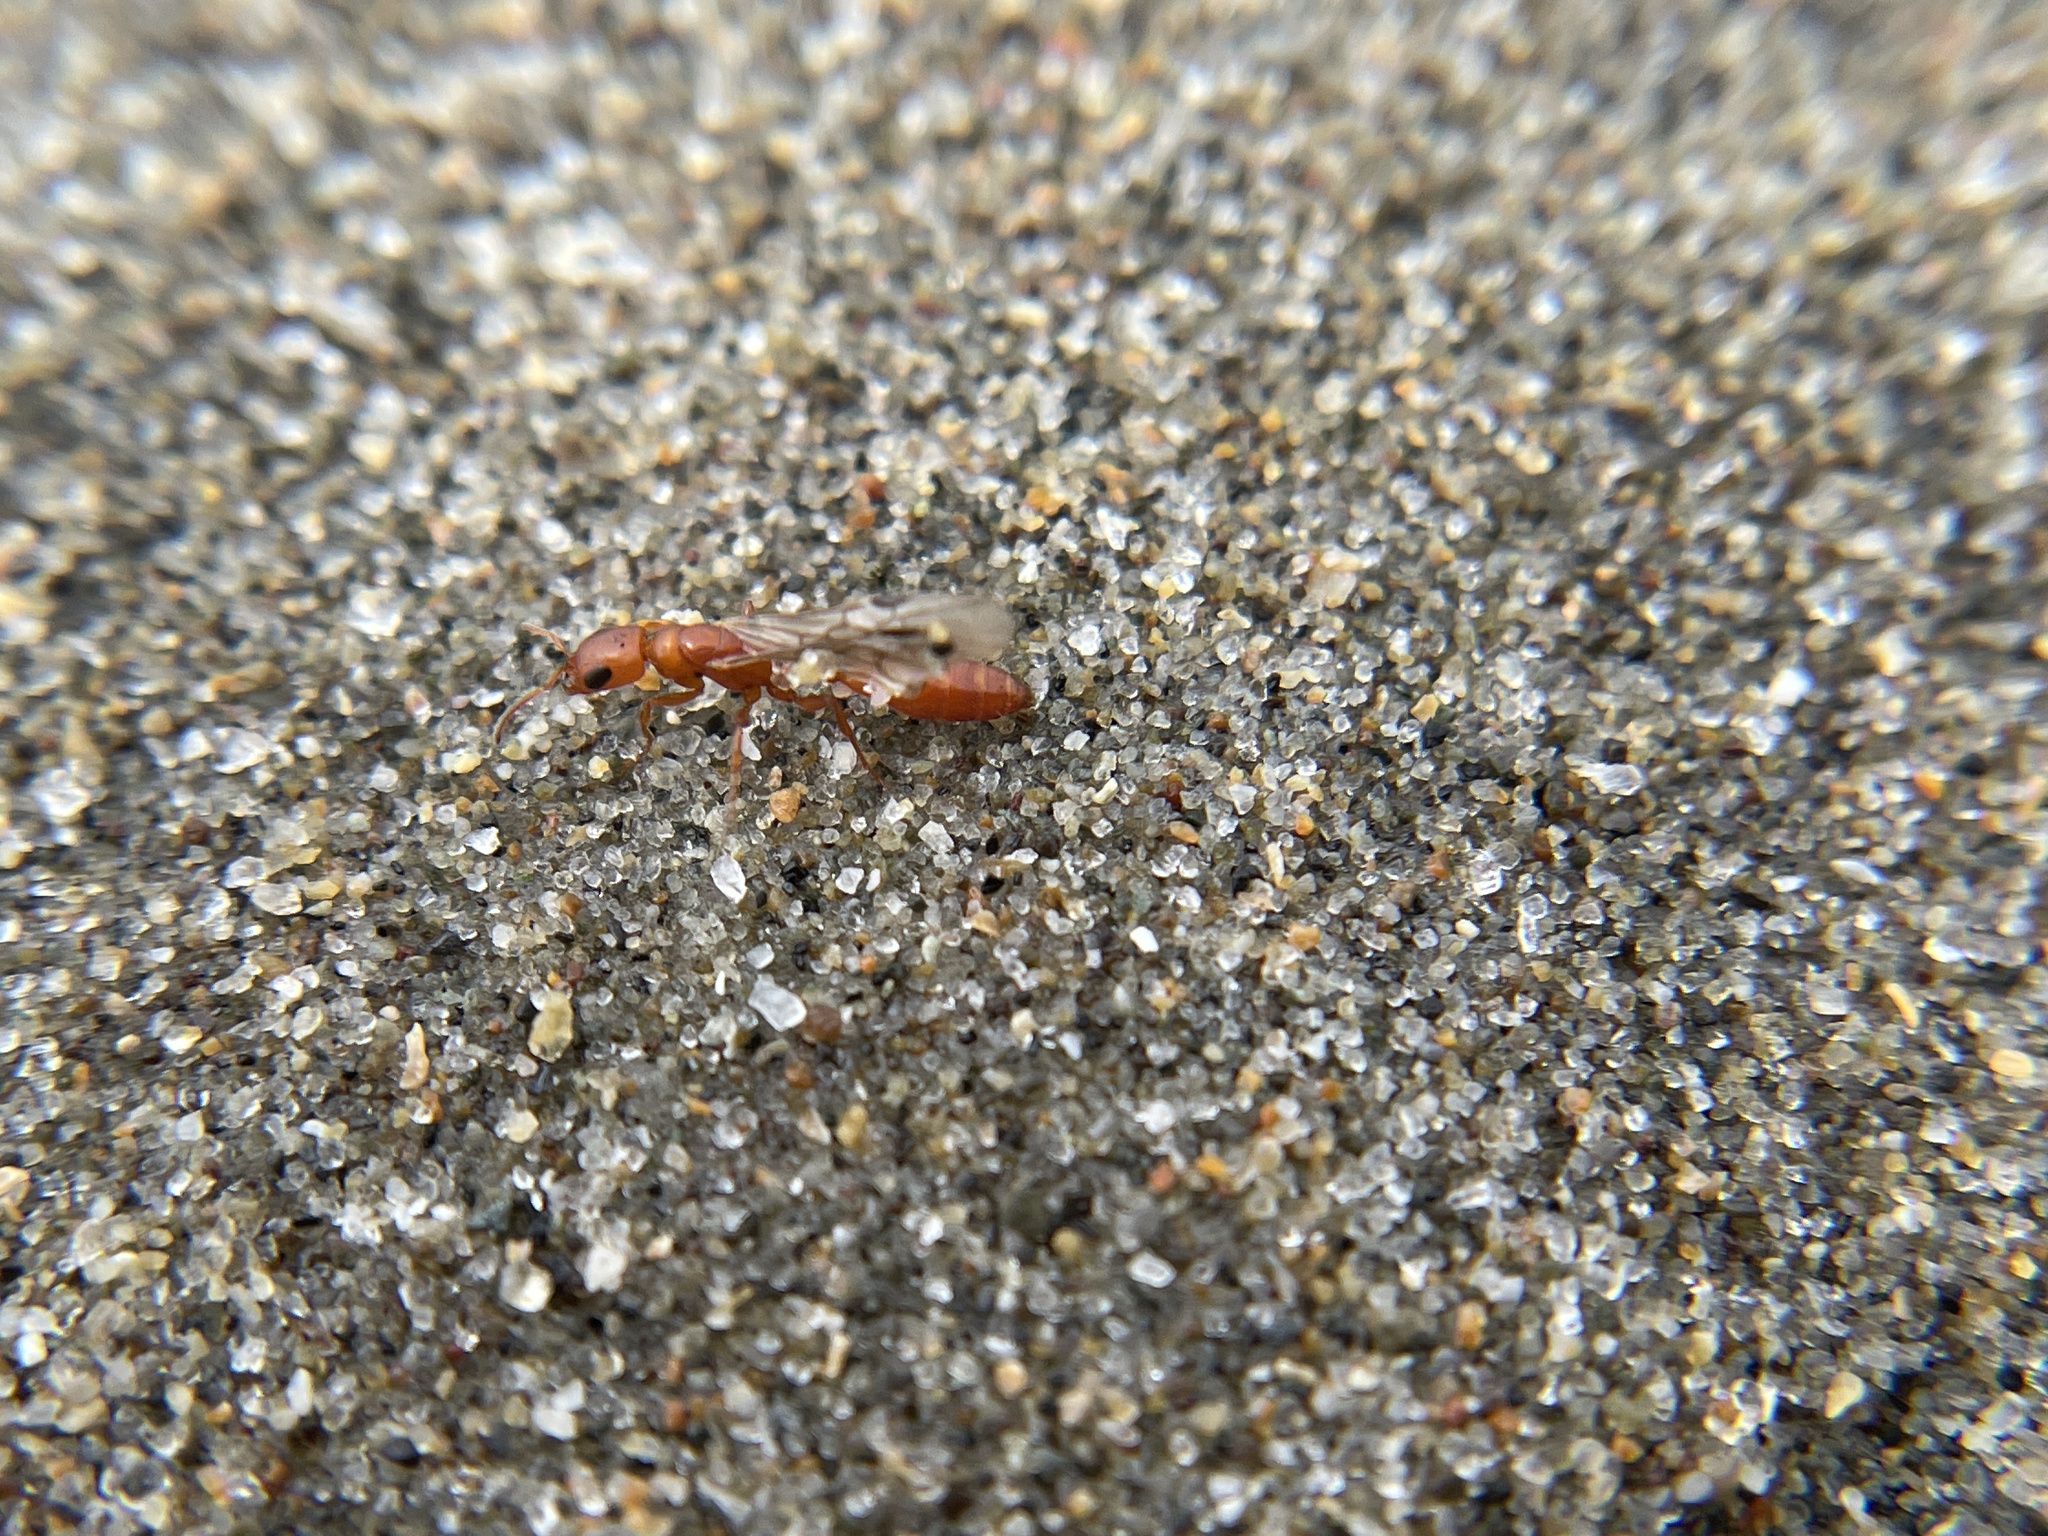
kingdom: Animalia
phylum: Arthropoda
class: Insecta
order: Hymenoptera
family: Formicidae
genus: Pseudomyrmex
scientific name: Pseudomyrmex apache
